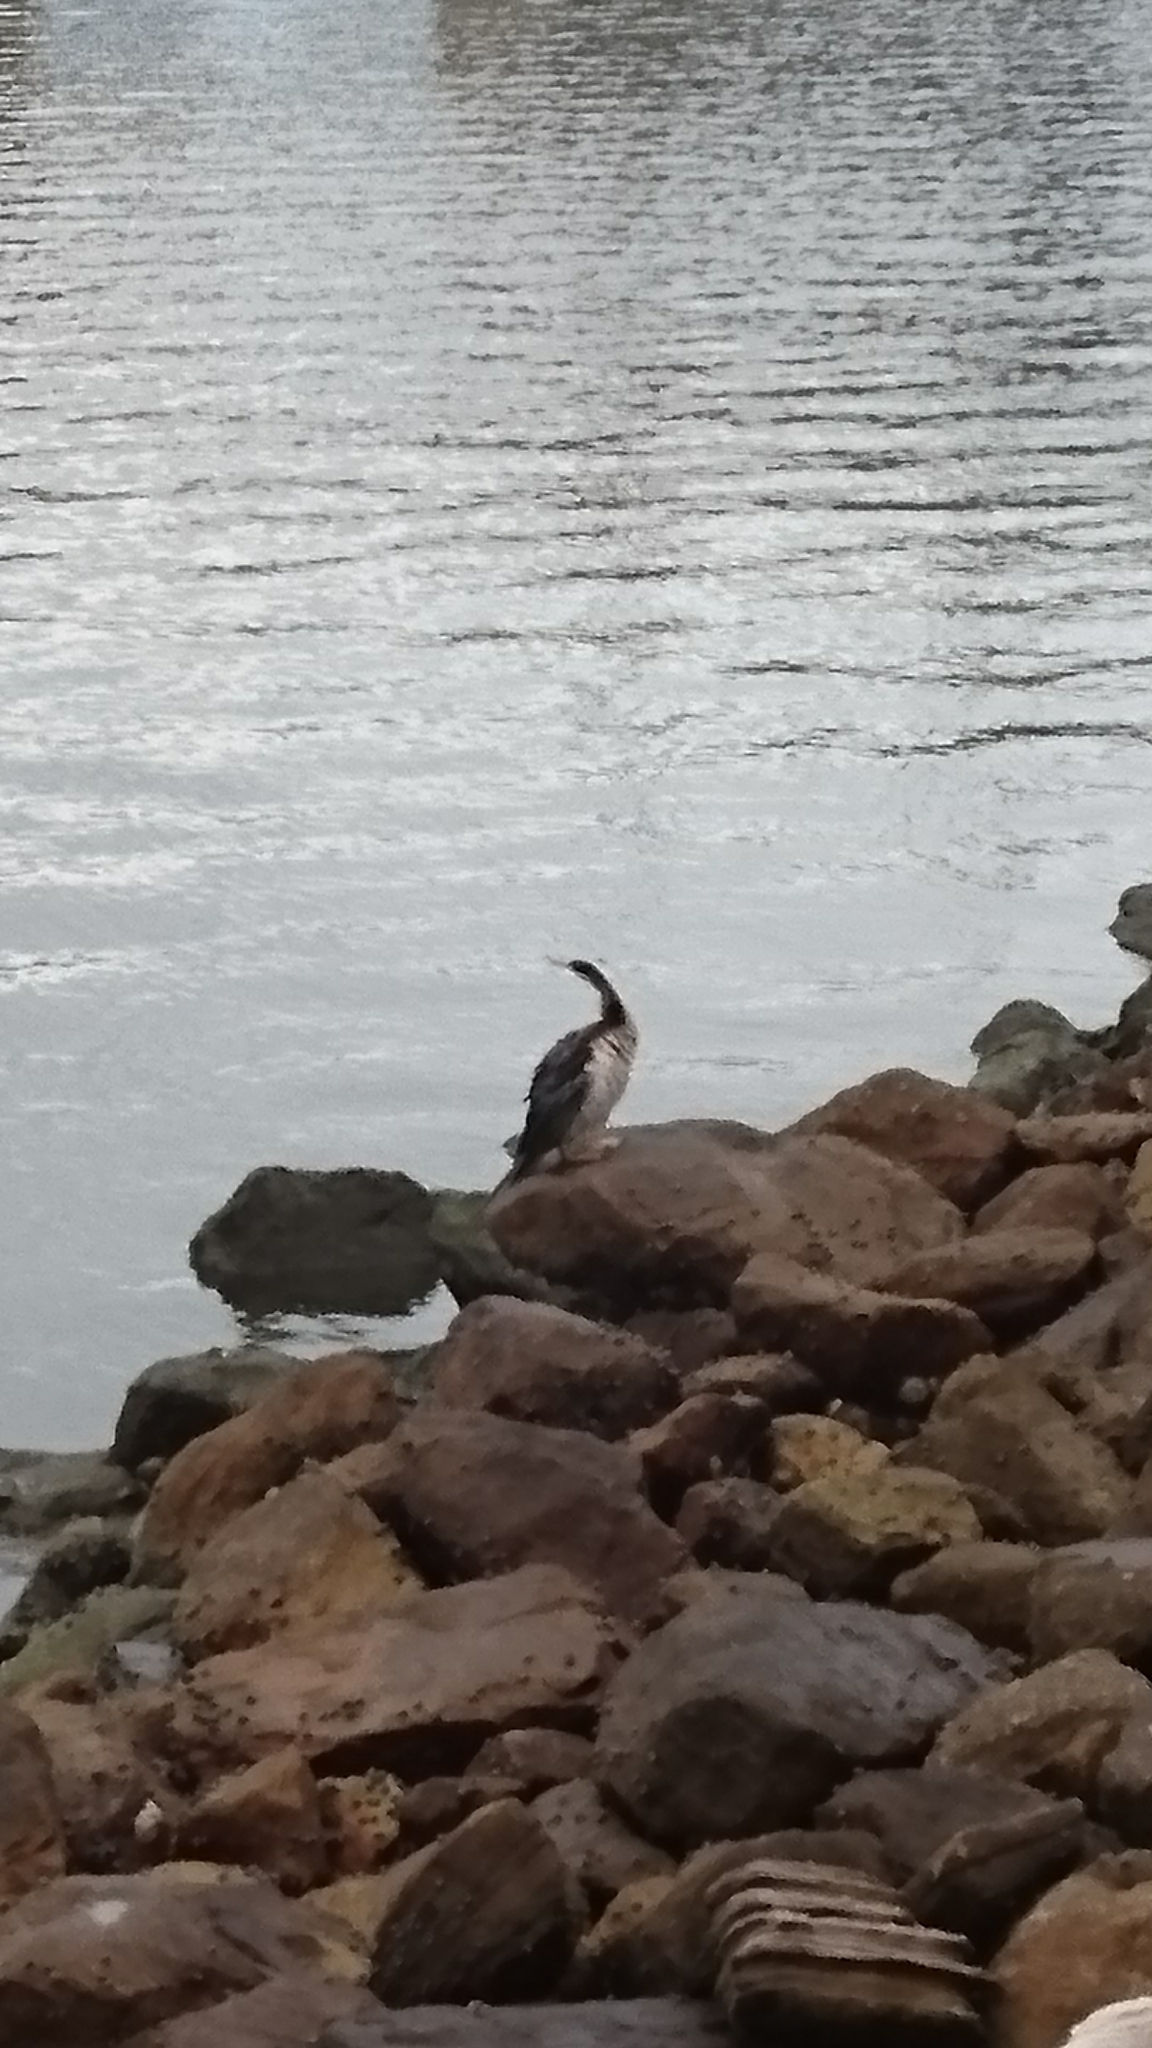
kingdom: Animalia
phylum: Chordata
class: Aves
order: Suliformes
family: Anhingidae
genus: Anhinga
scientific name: Anhinga novaehollandiae
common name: Australasian darter
